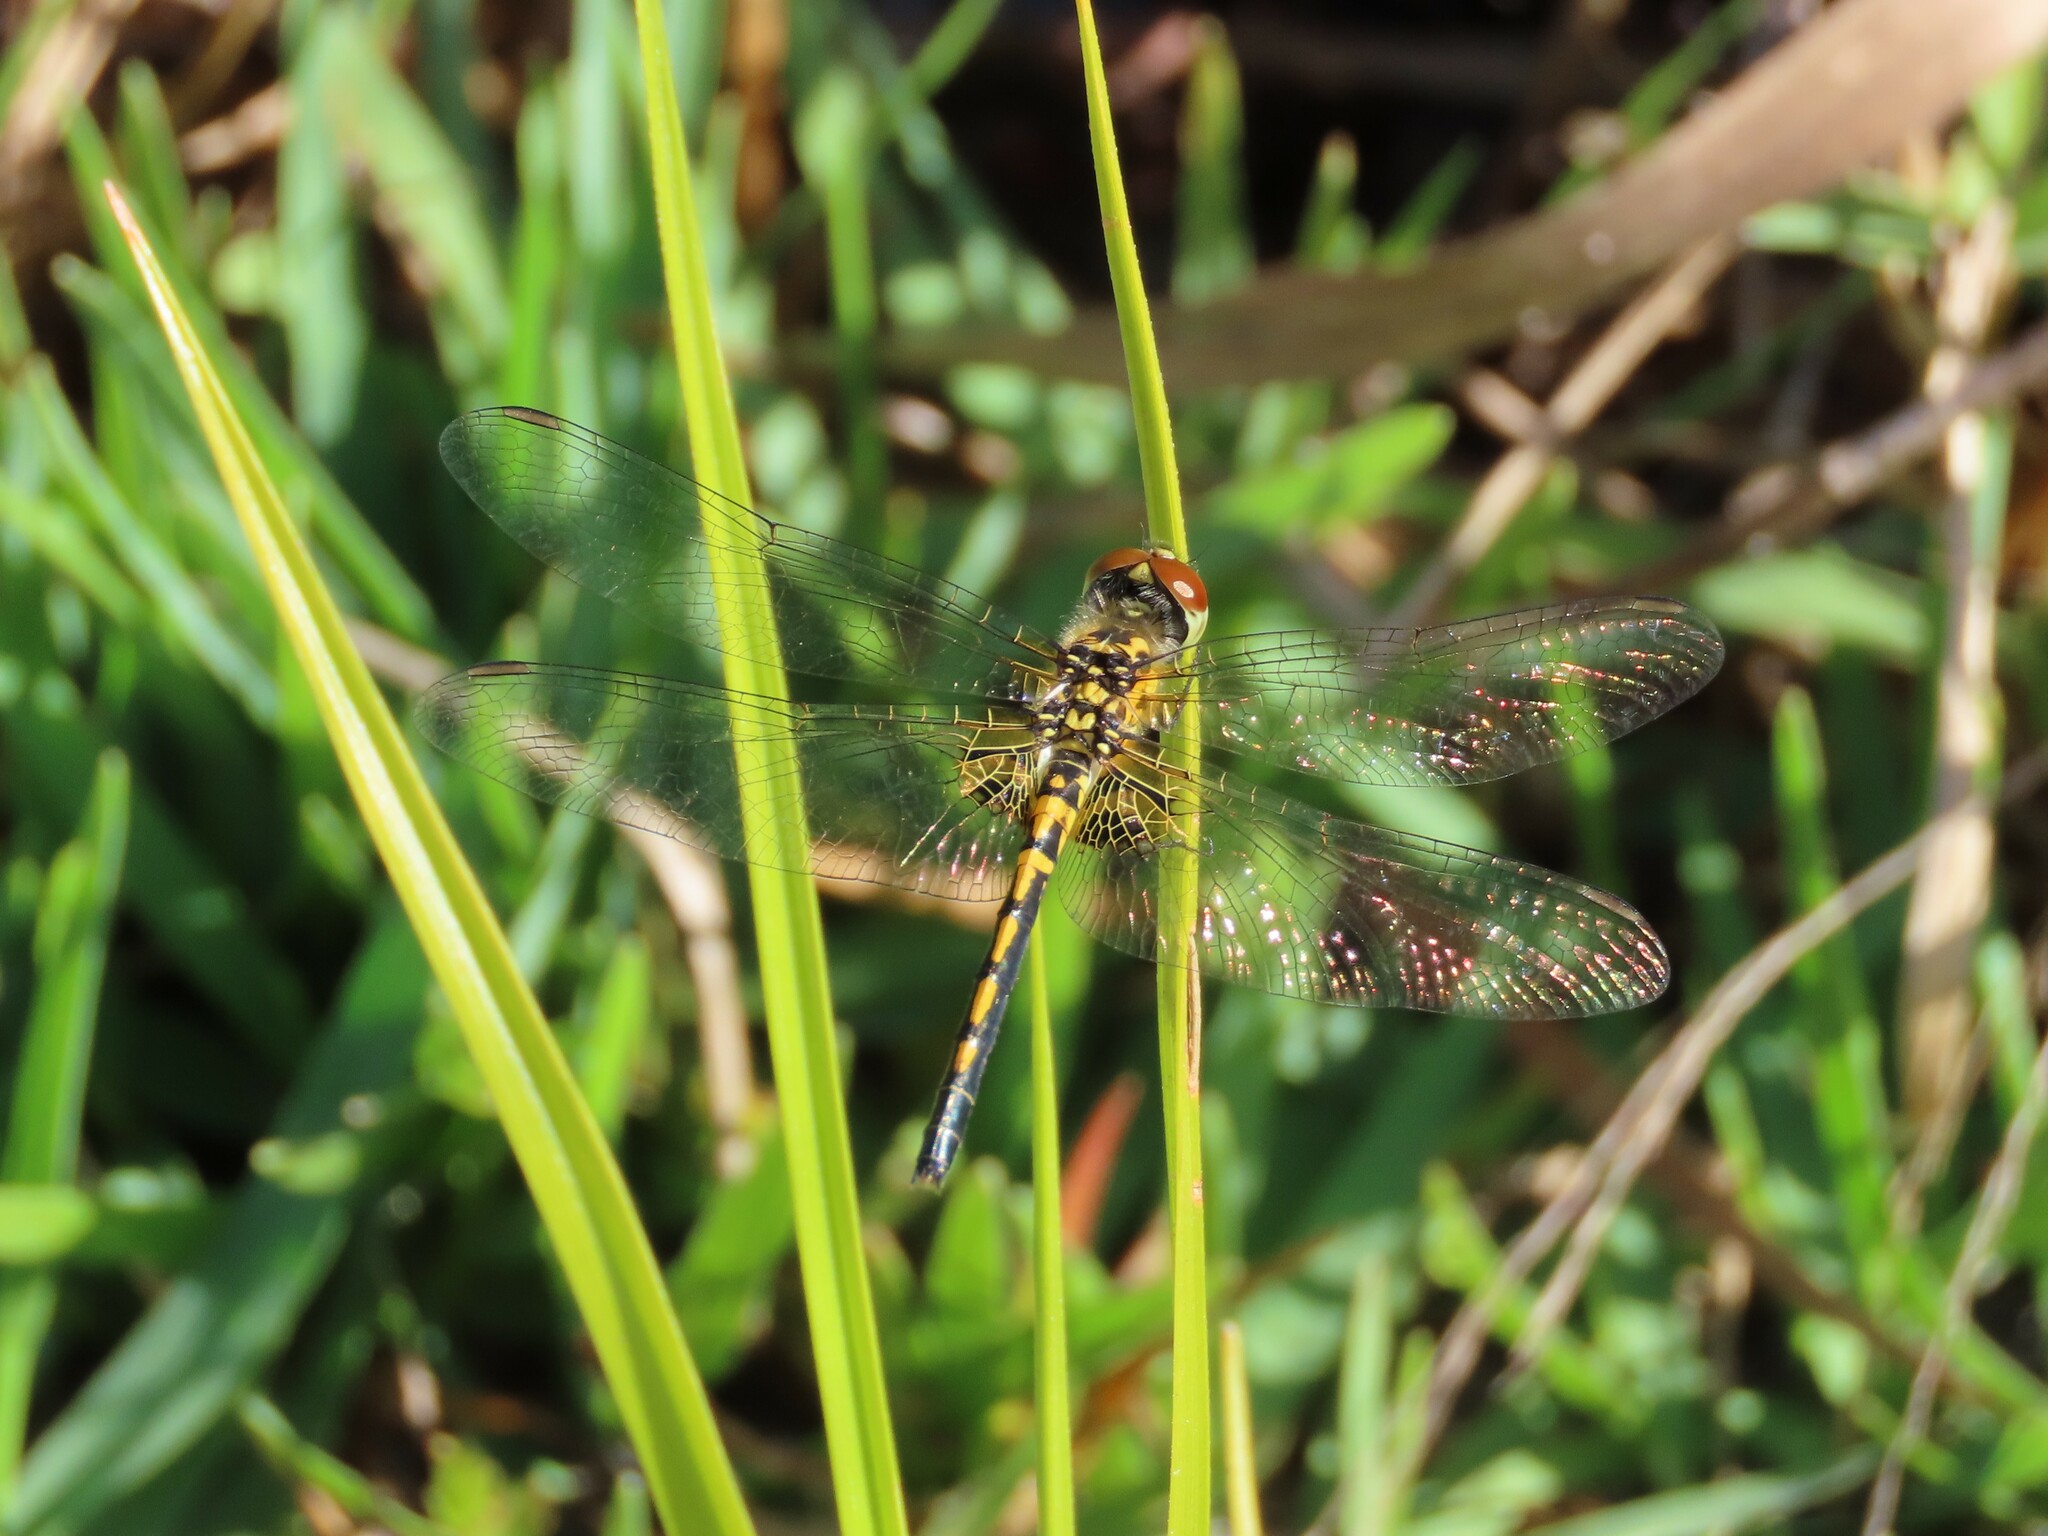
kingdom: Animalia
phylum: Arthropoda
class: Insecta
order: Odonata
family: Libellulidae
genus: Celithemis
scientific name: Celithemis ornata
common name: Ornate pennant
